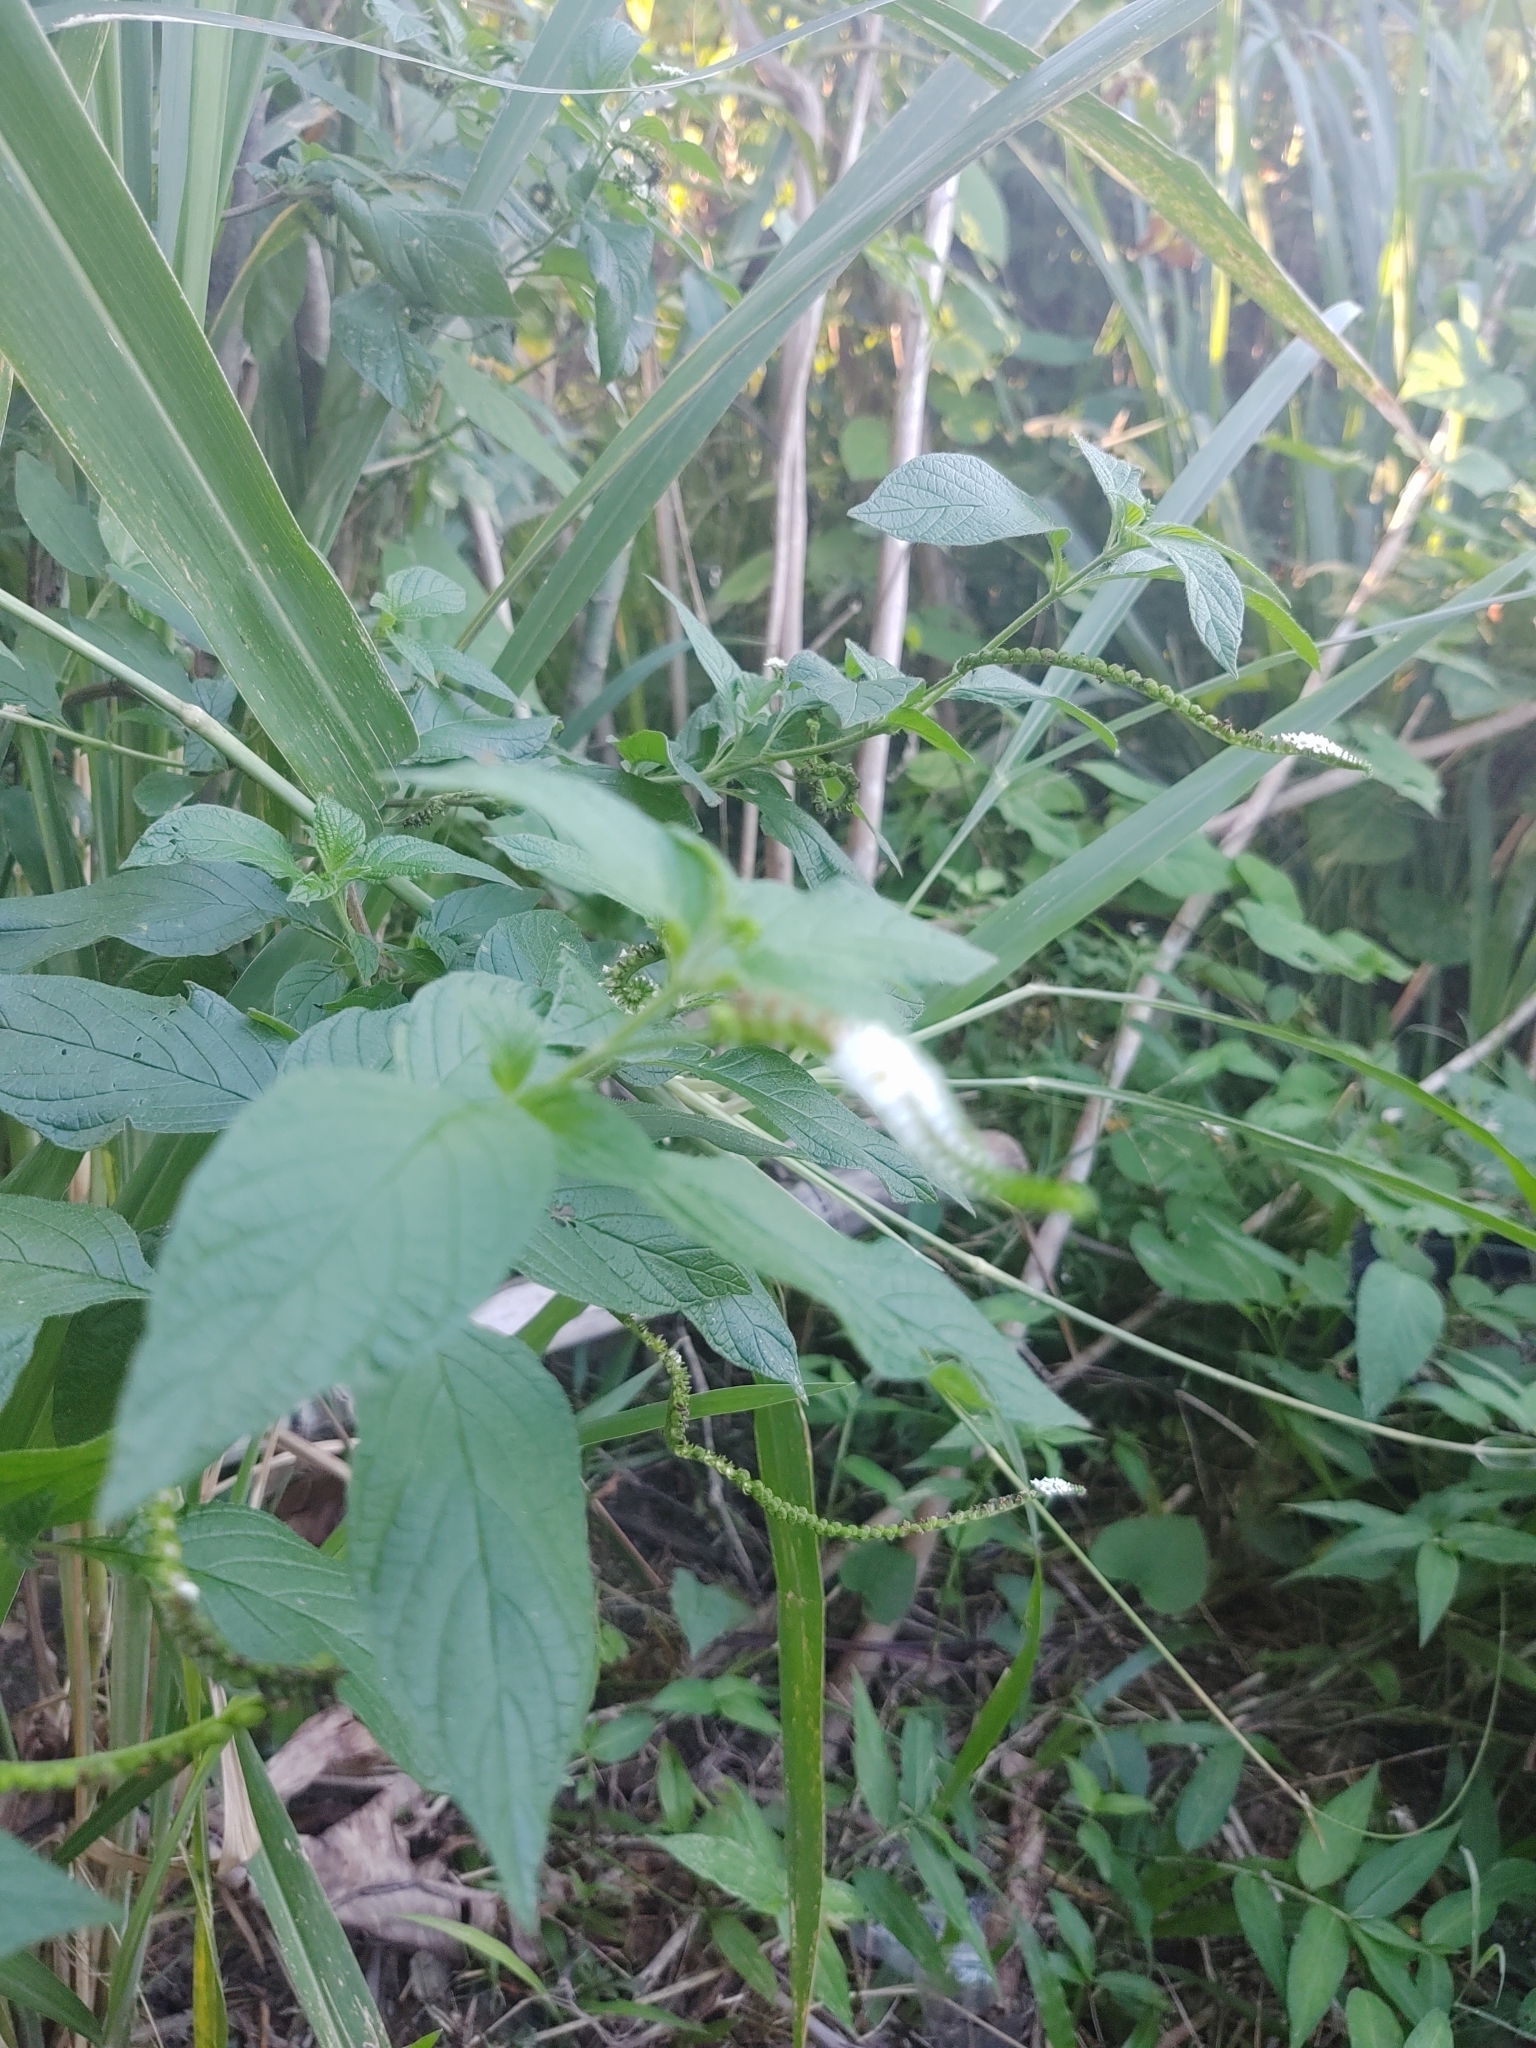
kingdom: Plantae
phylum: Tracheophyta
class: Magnoliopsida
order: Boraginales
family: Heliotropiaceae
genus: Heliotropium
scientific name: Heliotropium angiospermum
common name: Eye bright
